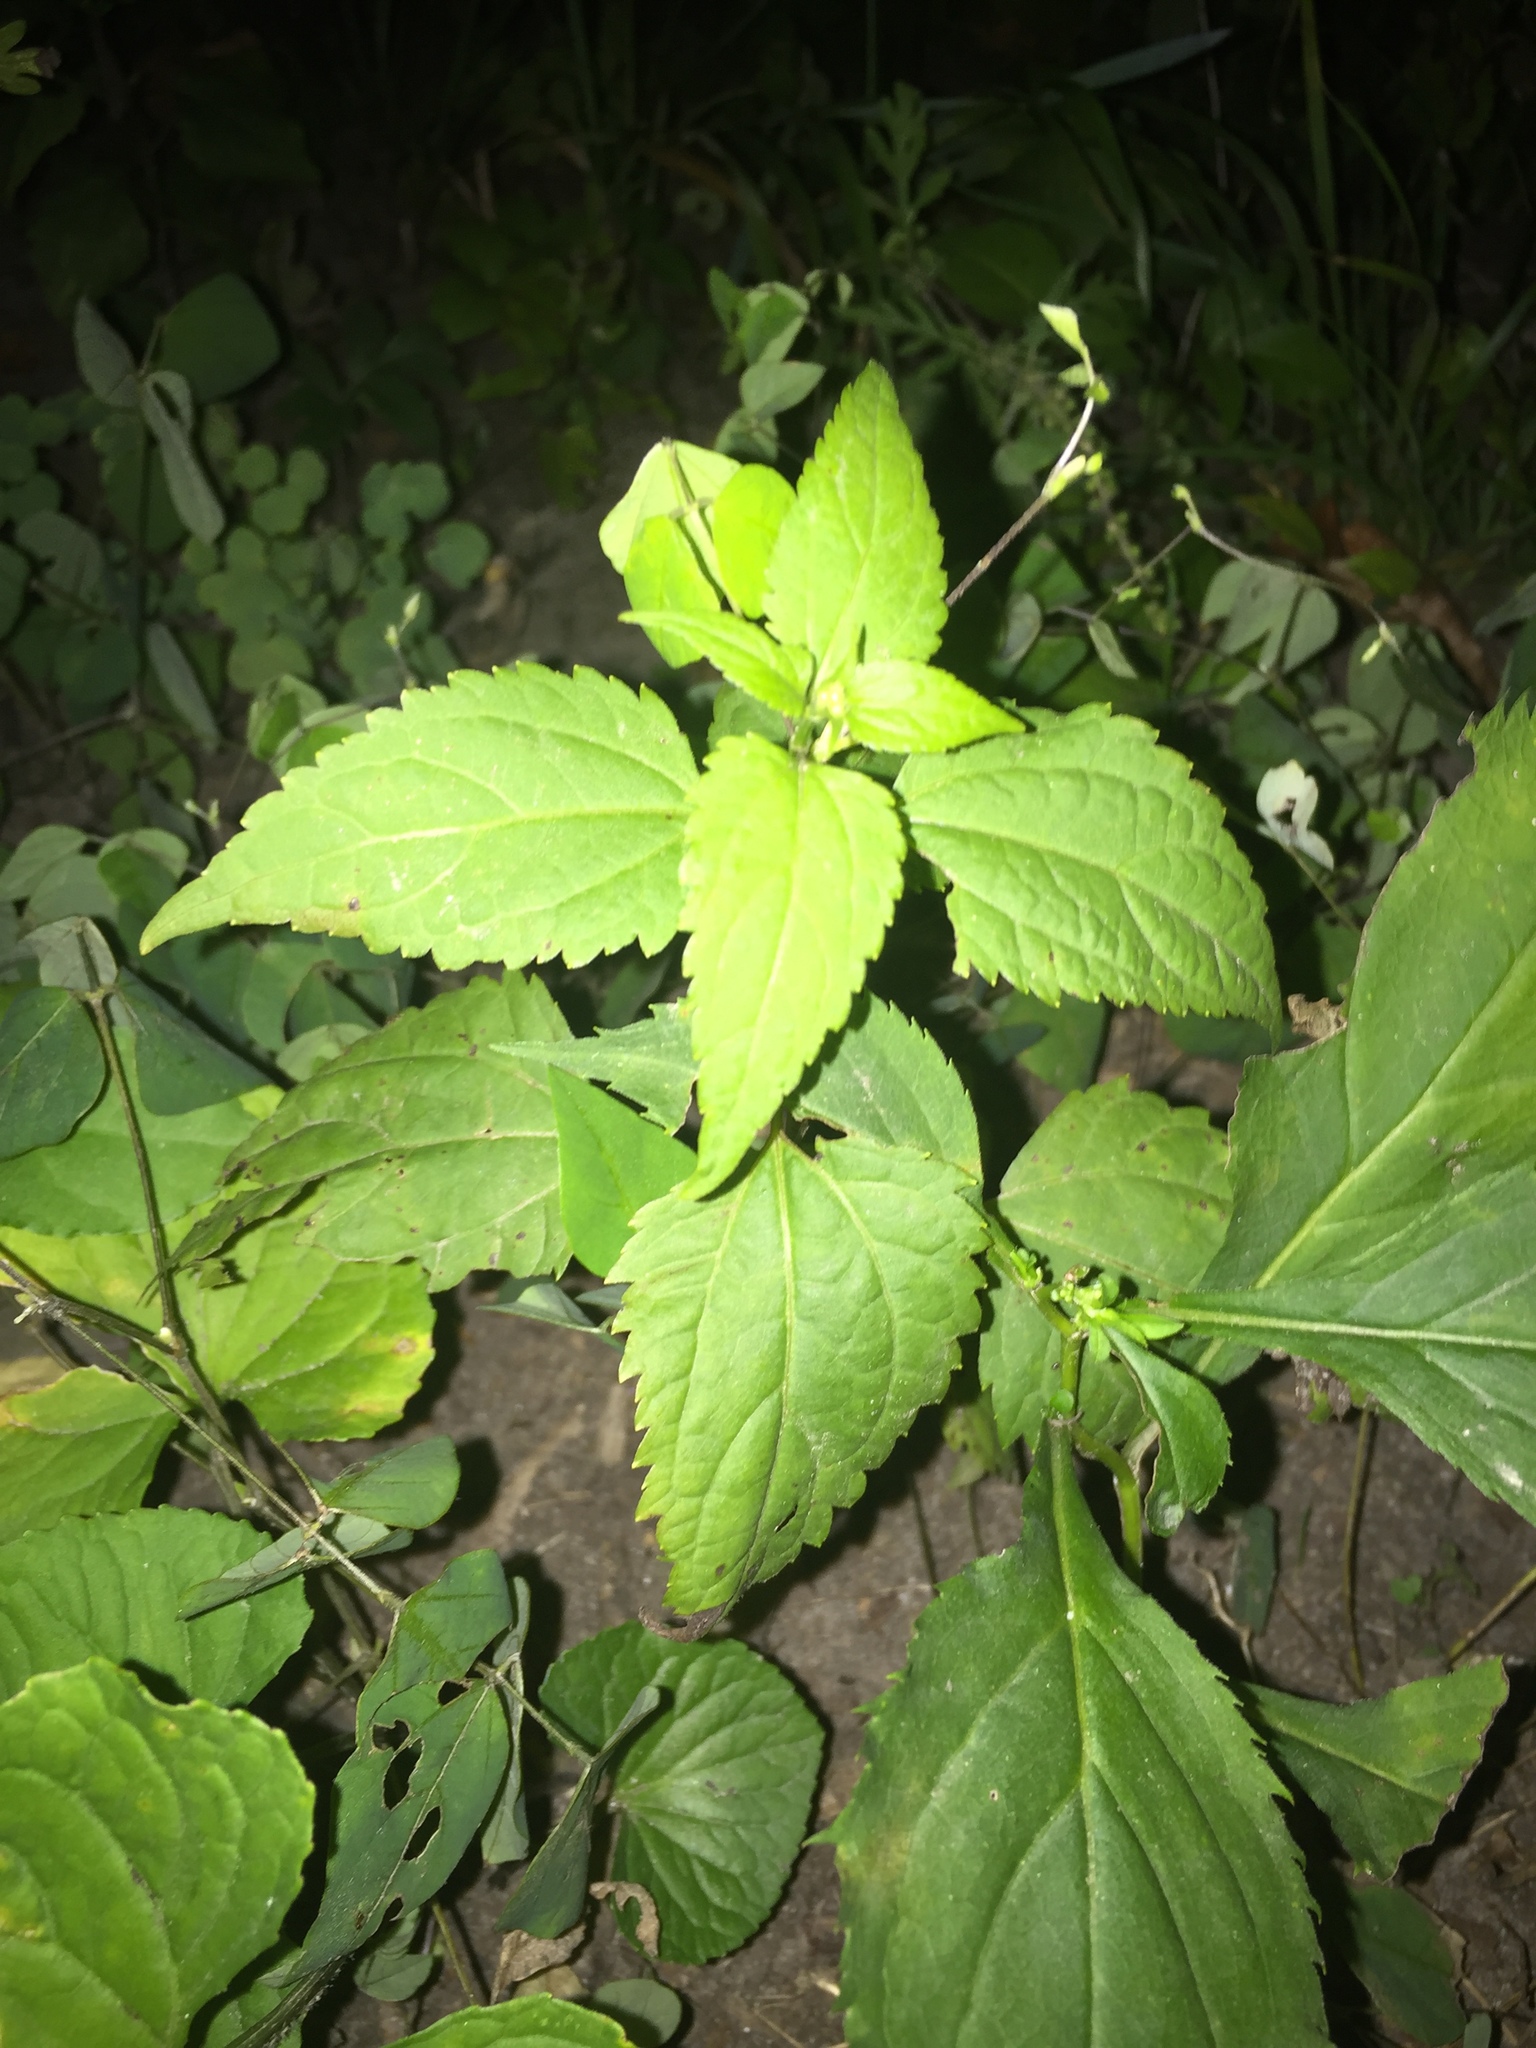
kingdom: Plantae
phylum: Tracheophyta
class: Magnoliopsida
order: Asterales
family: Asteraceae
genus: Solidago
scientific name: Solidago flexicaulis
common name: Zig-zag goldenrod
